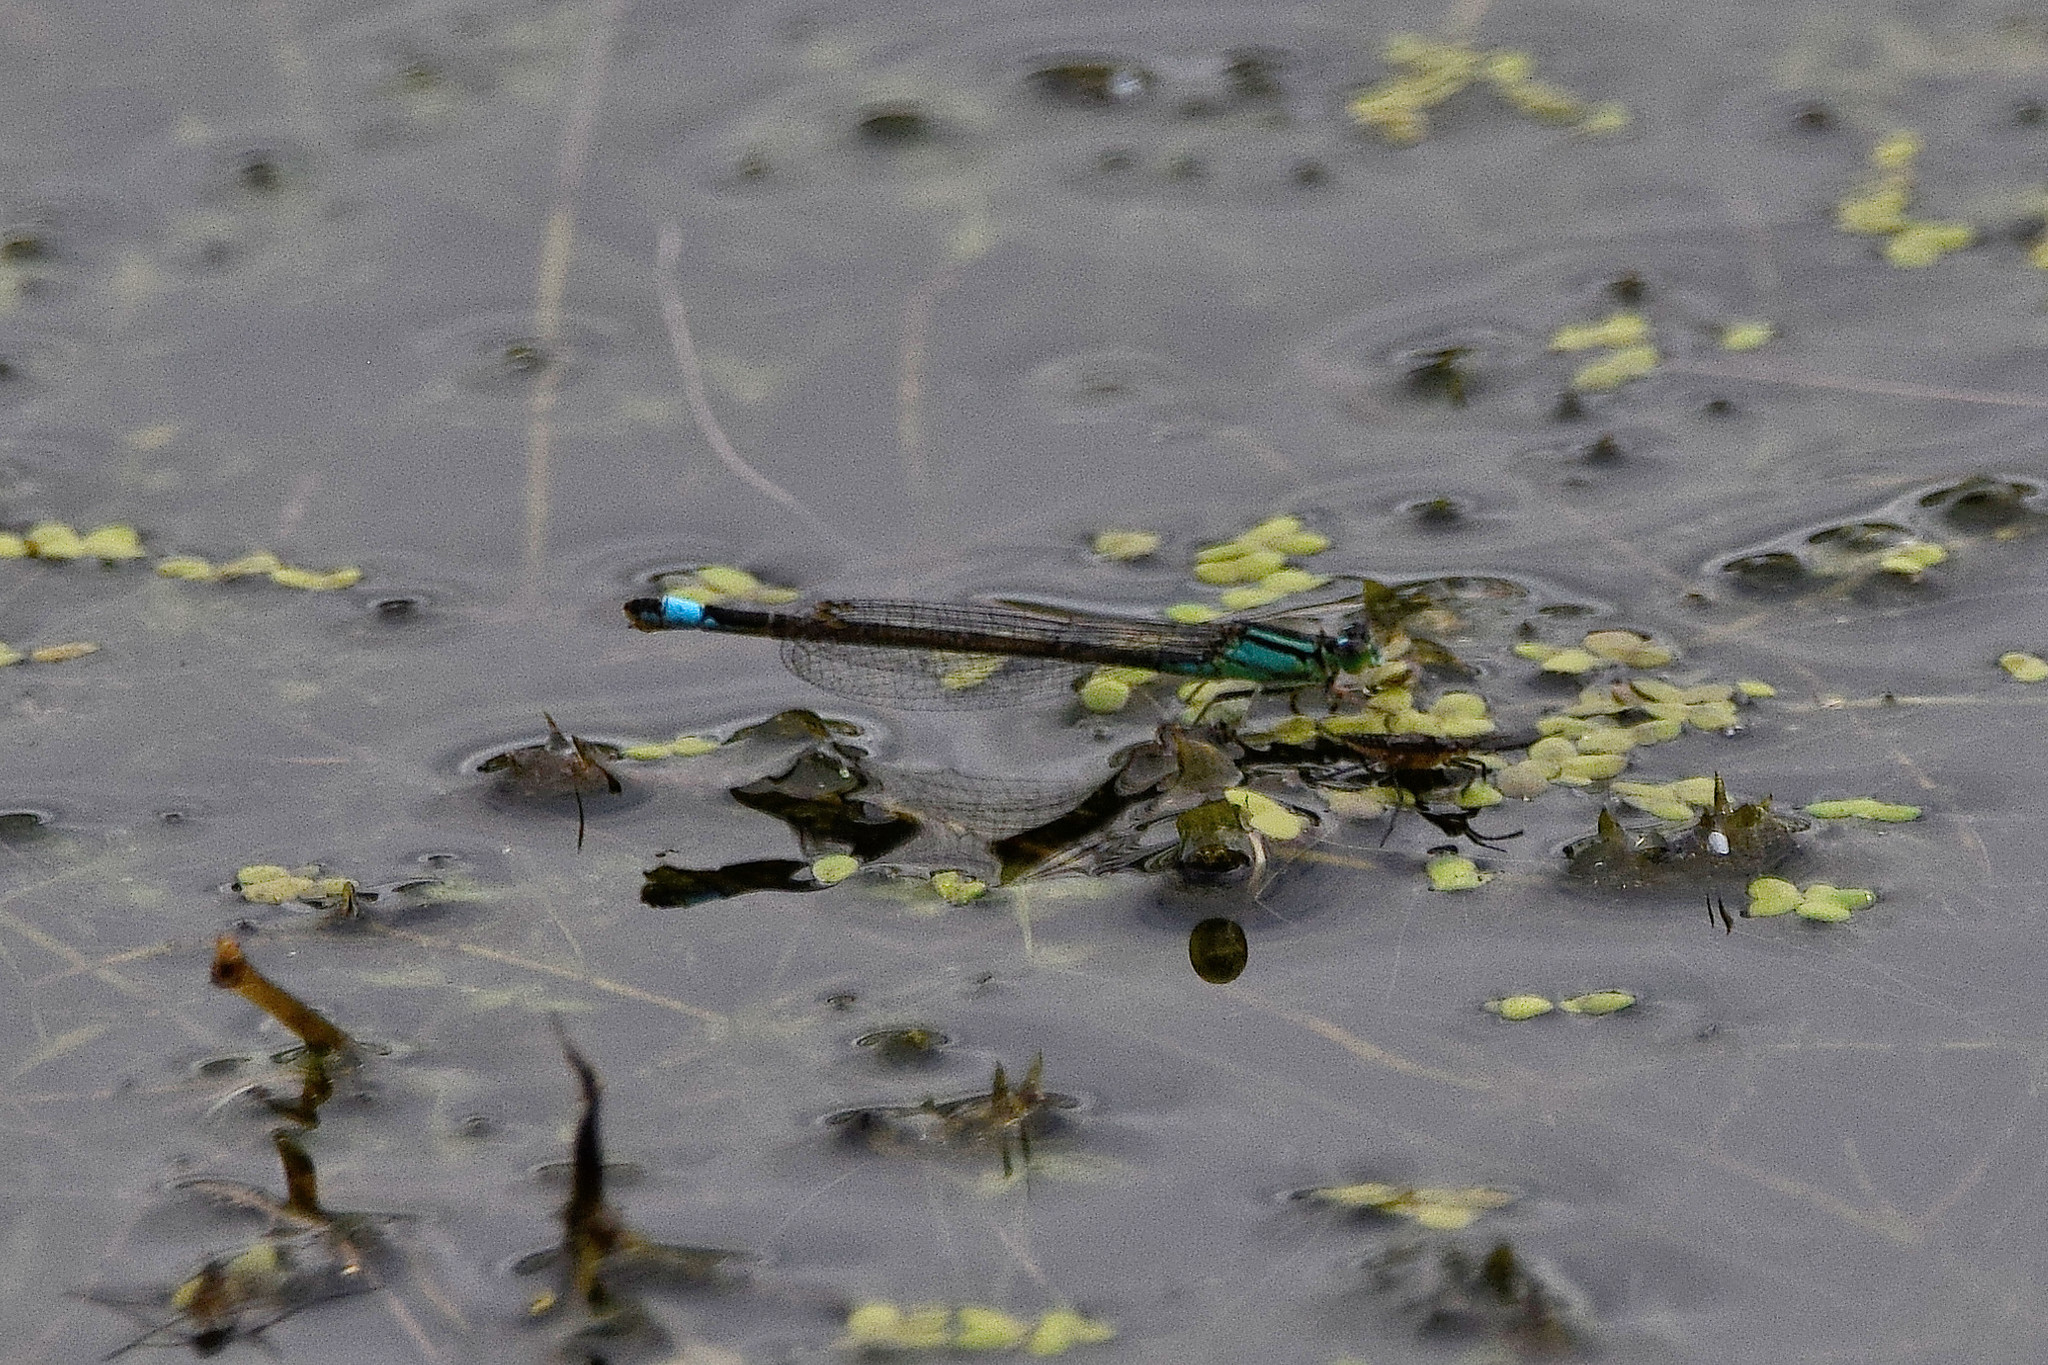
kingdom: Animalia
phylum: Arthropoda
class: Insecta
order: Odonata
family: Coenagrionidae
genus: Ischnura
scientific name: Ischnura elegans
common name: Blue-tailed damselfly
